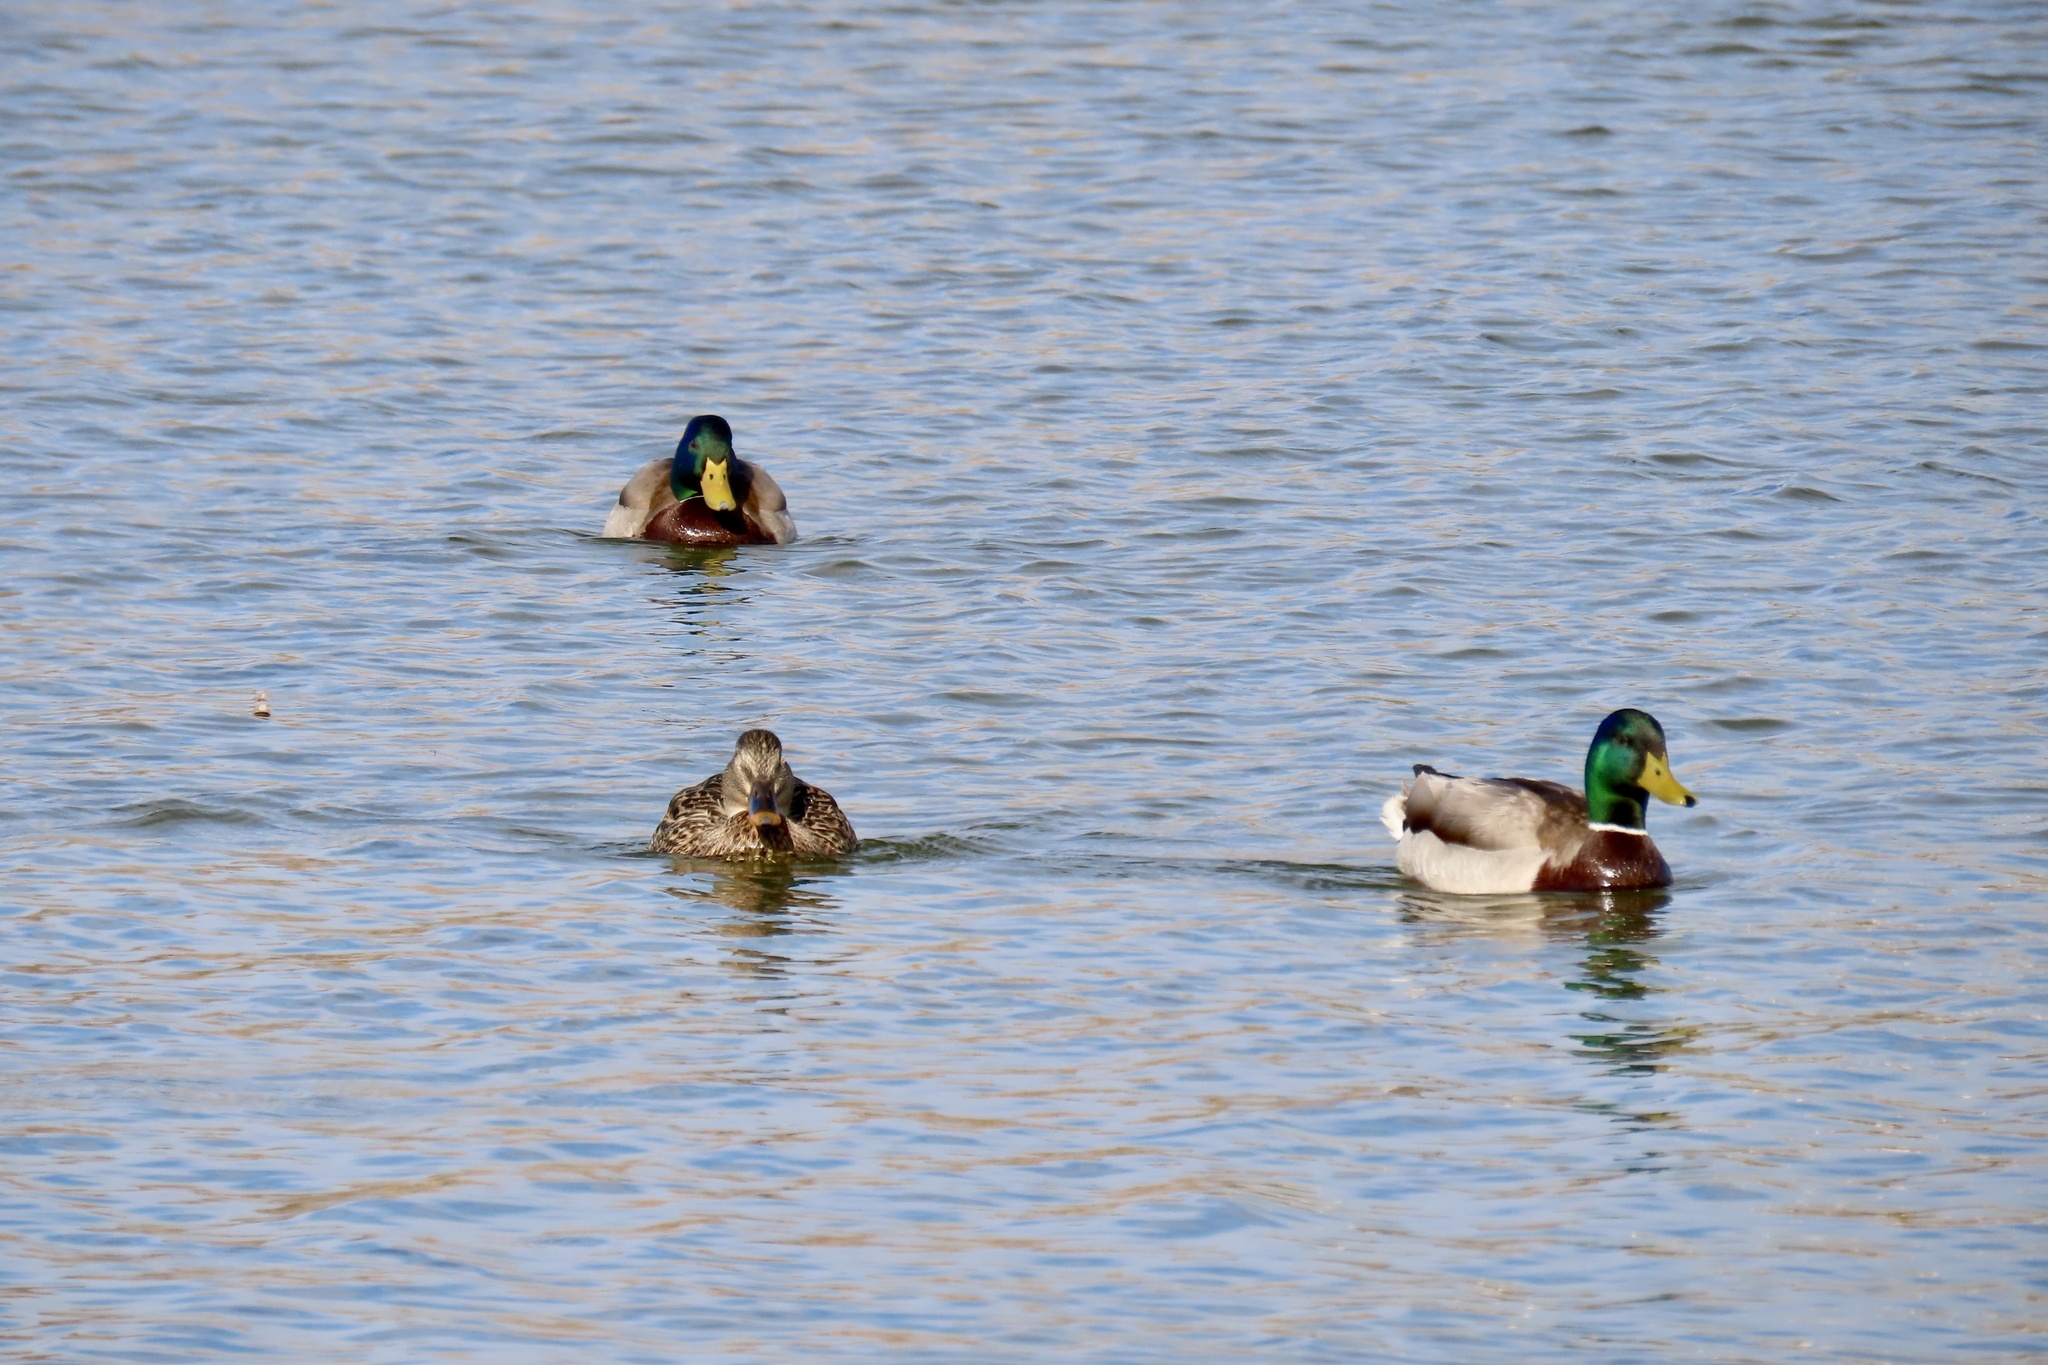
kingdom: Animalia
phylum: Chordata
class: Aves
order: Anseriformes
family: Anatidae
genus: Anas
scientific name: Anas platyrhynchos
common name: Mallard
